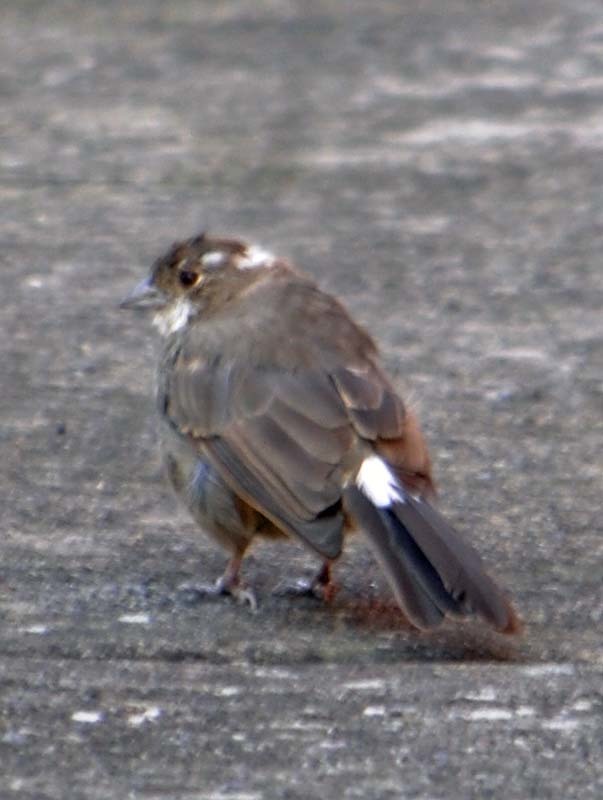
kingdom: Animalia
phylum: Chordata
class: Aves
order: Passeriformes
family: Passerellidae
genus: Melozone
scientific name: Melozone fusca
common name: Canyon towhee
